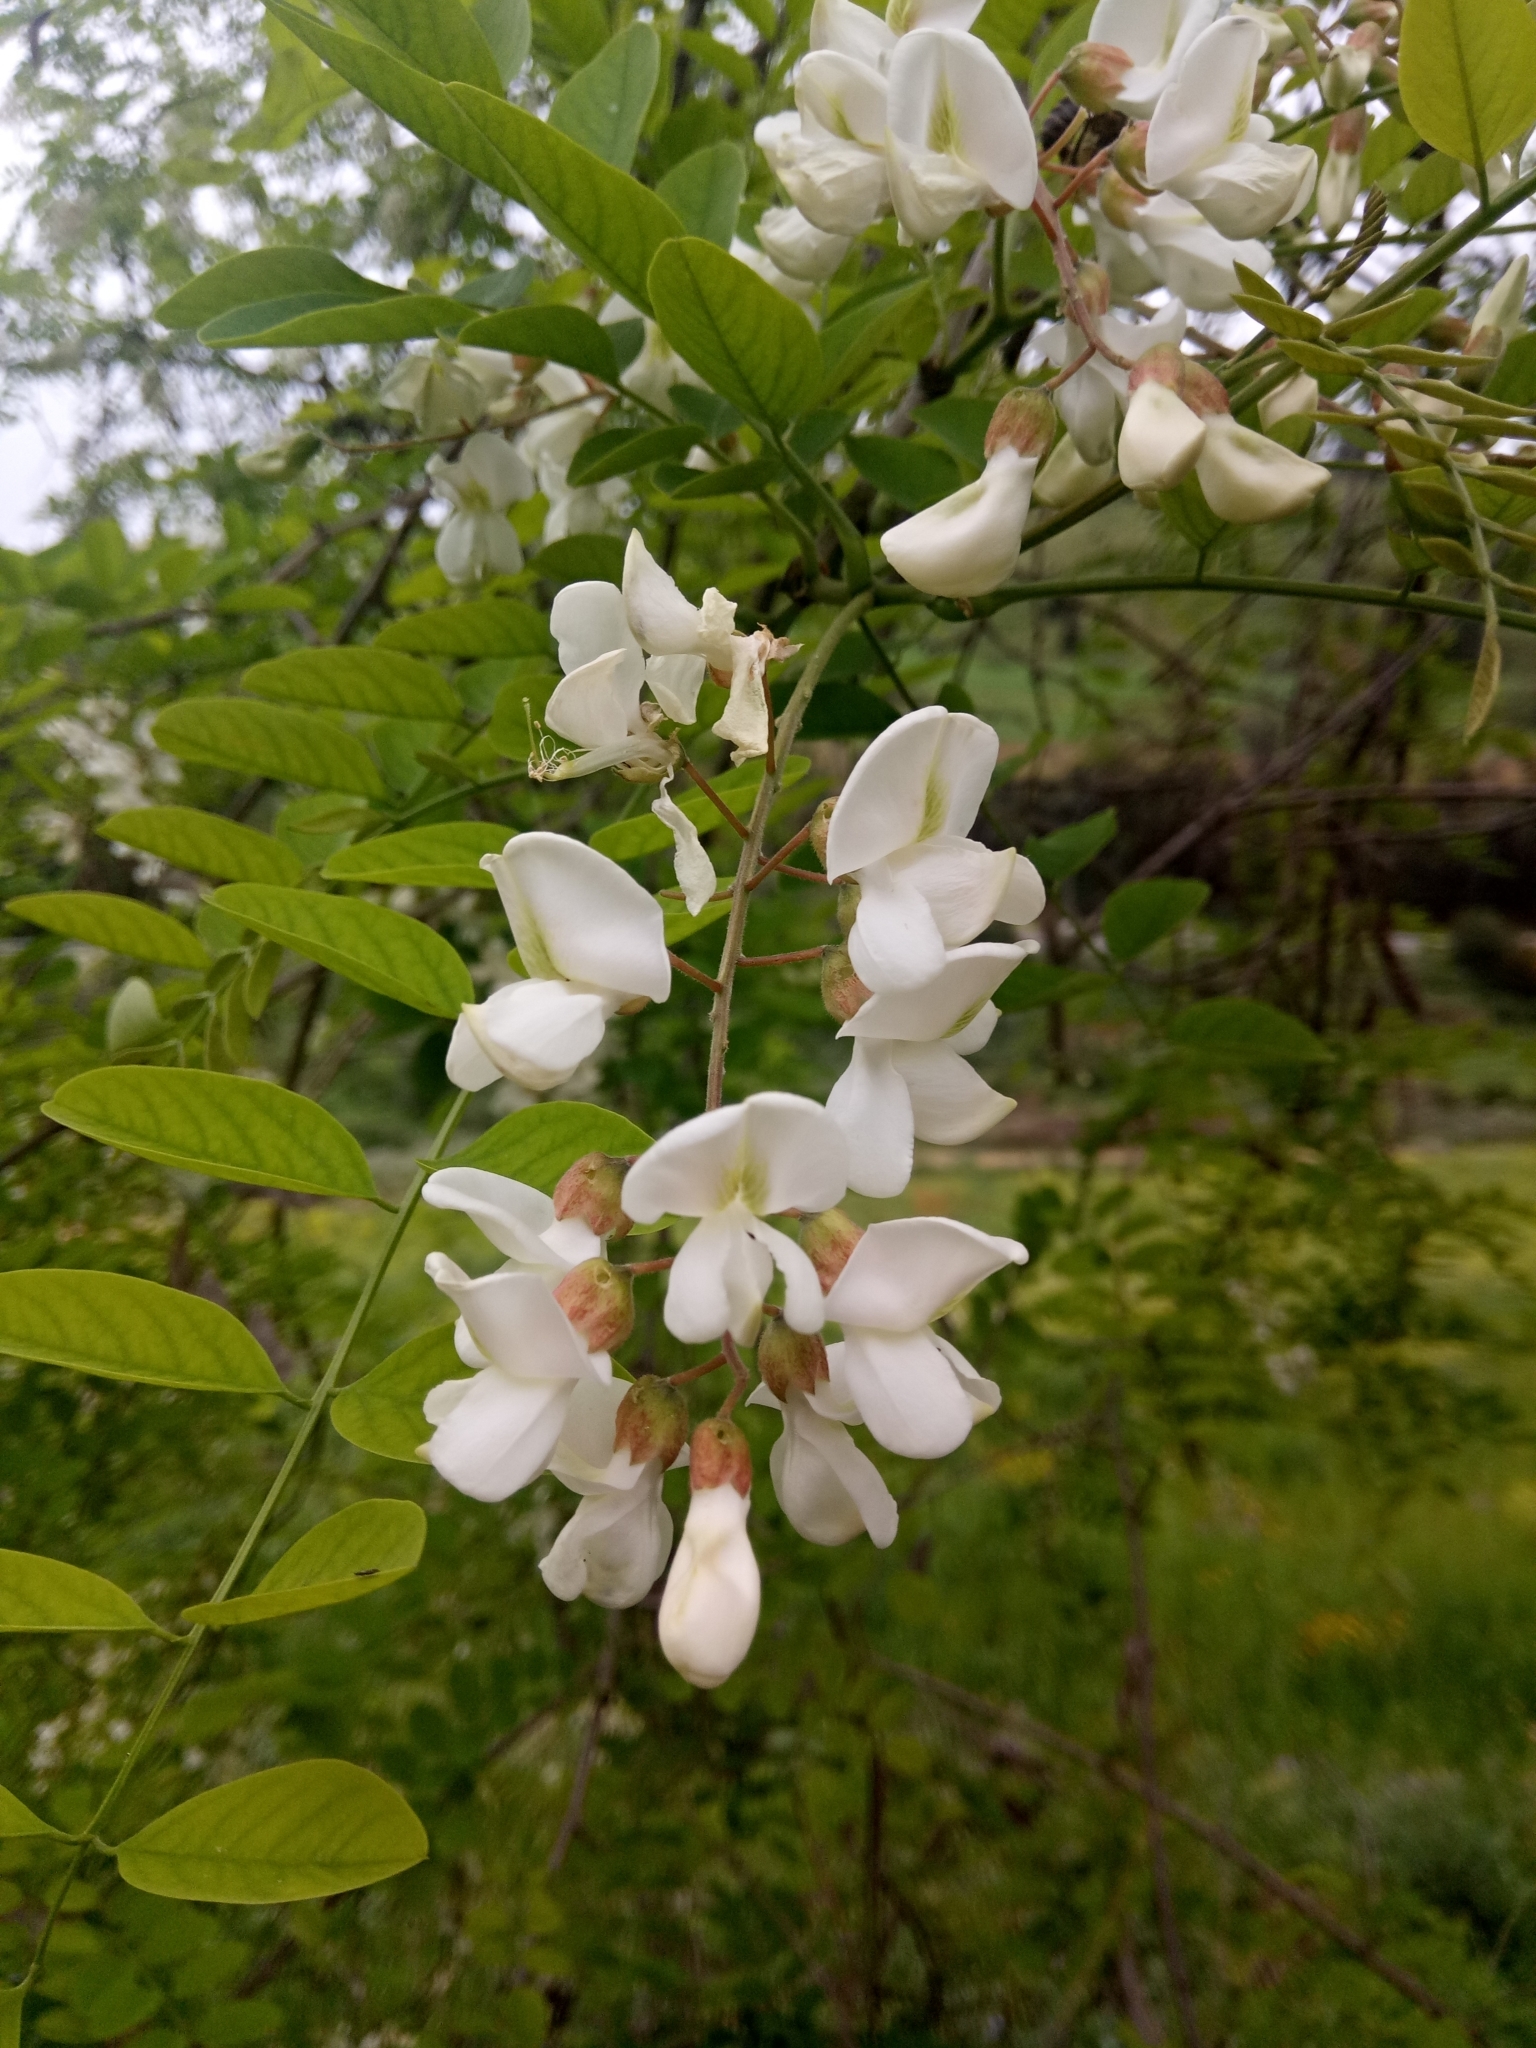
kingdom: Plantae
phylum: Tracheophyta
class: Magnoliopsida
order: Fabales
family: Fabaceae
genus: Robinia
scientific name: Robinia pseudoacacia
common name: Black locust
